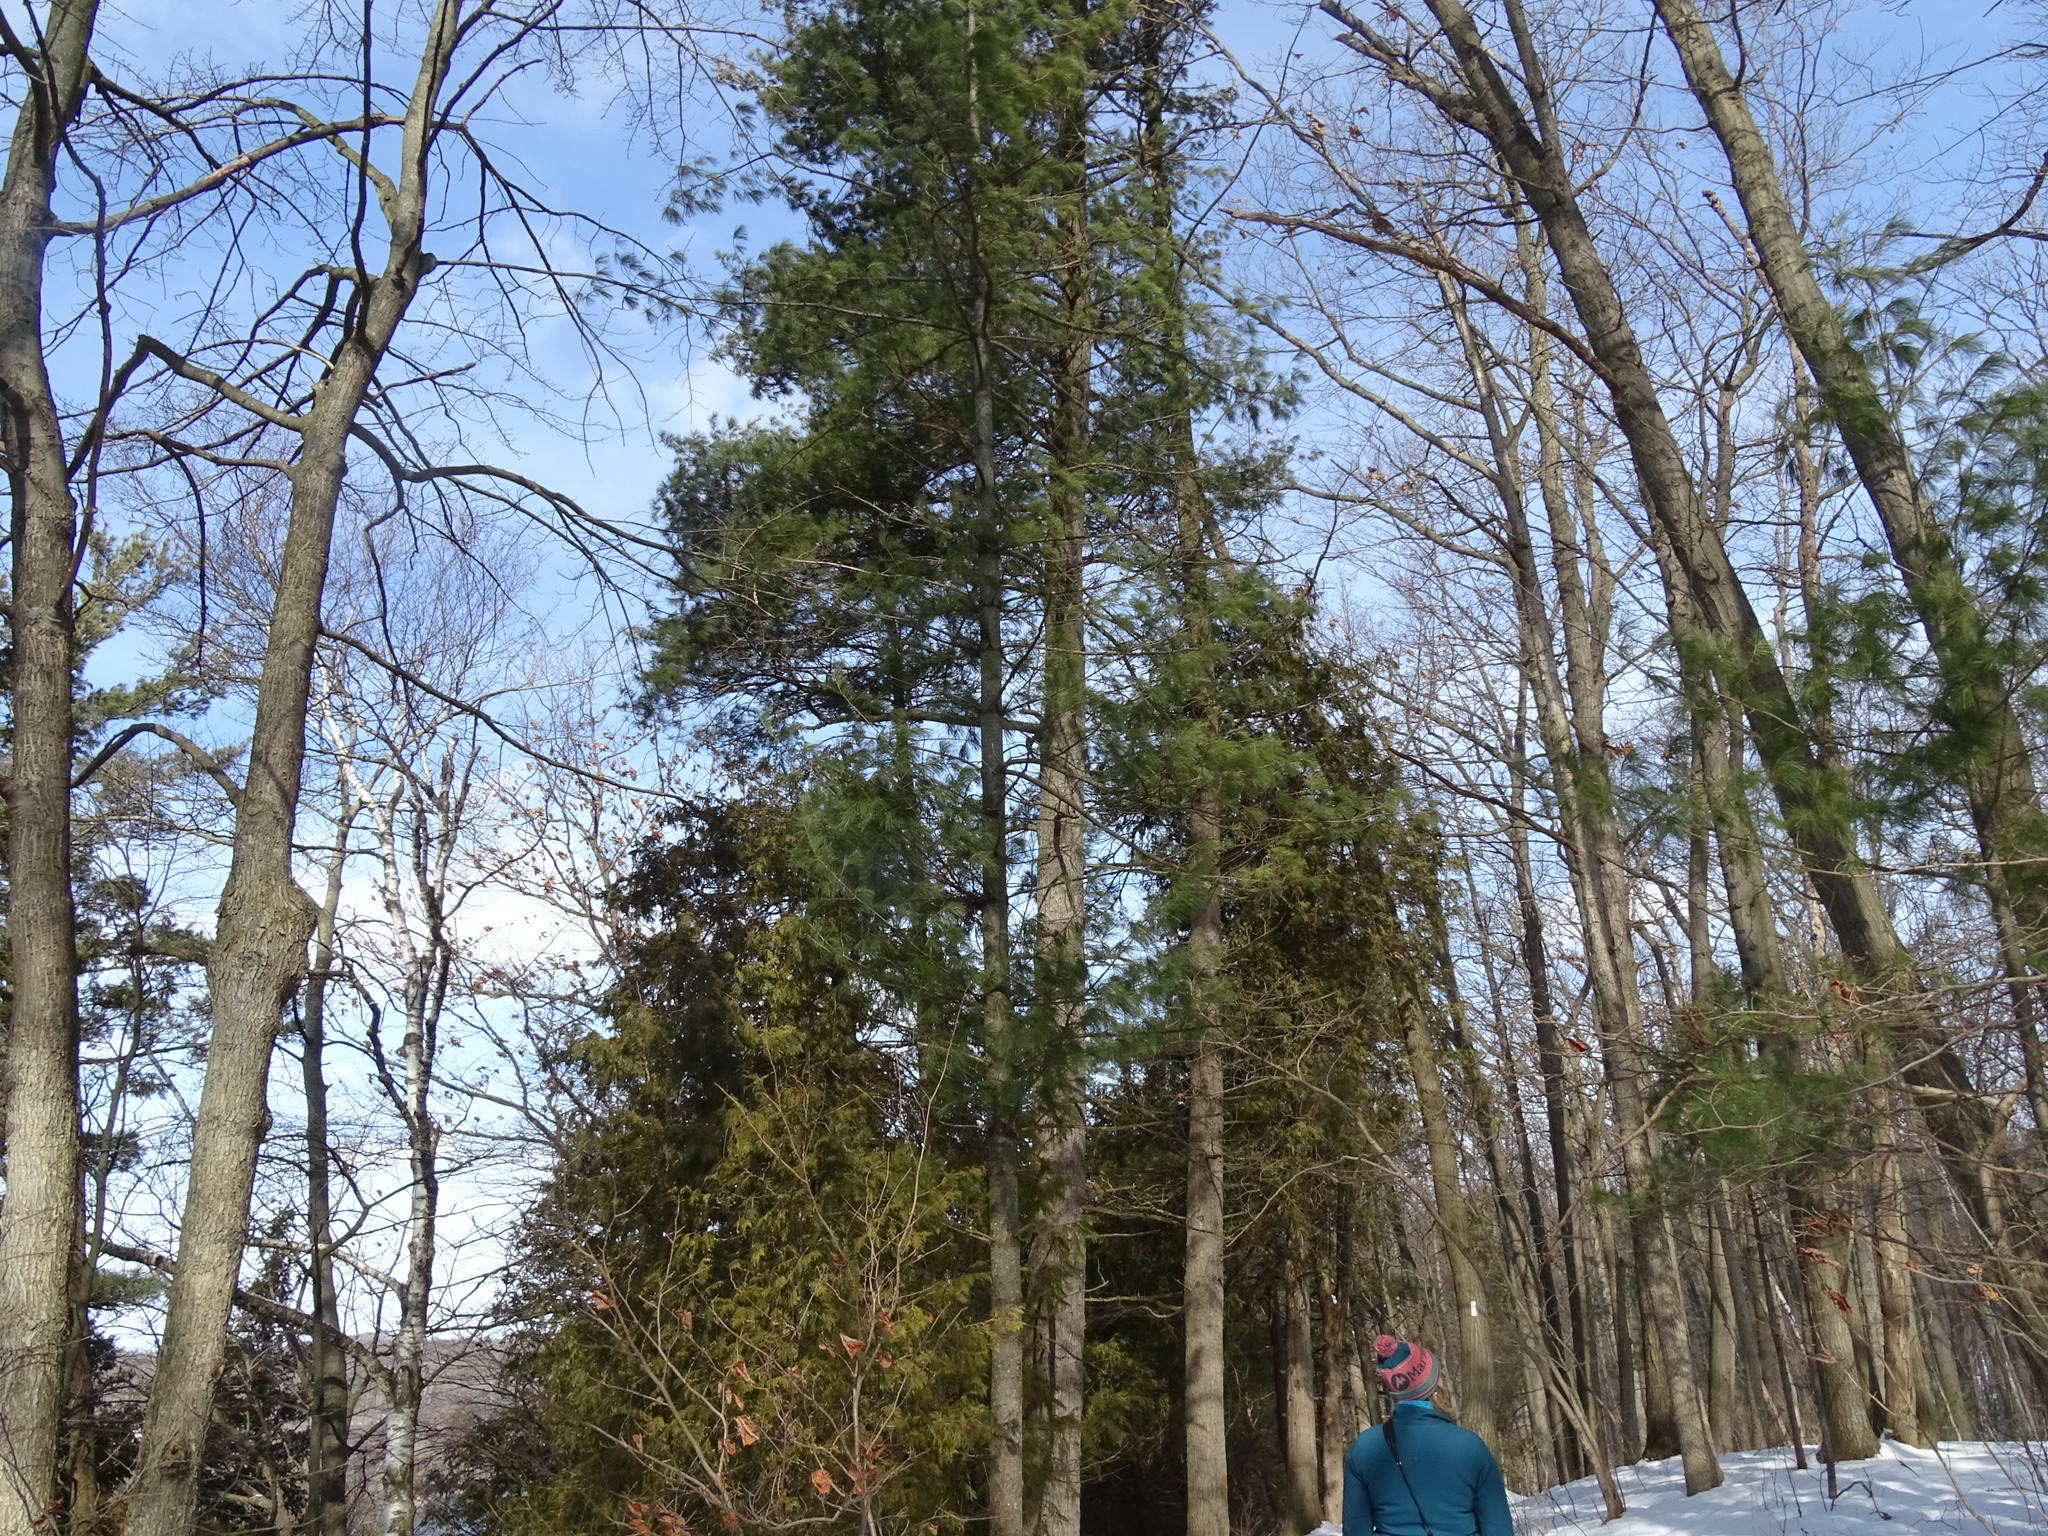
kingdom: Plantae
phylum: Tracheophyta
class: Pinopsida
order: Pinales
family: Pinaceae
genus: Pinus
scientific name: Pinus strobus
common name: Weymouth pine
